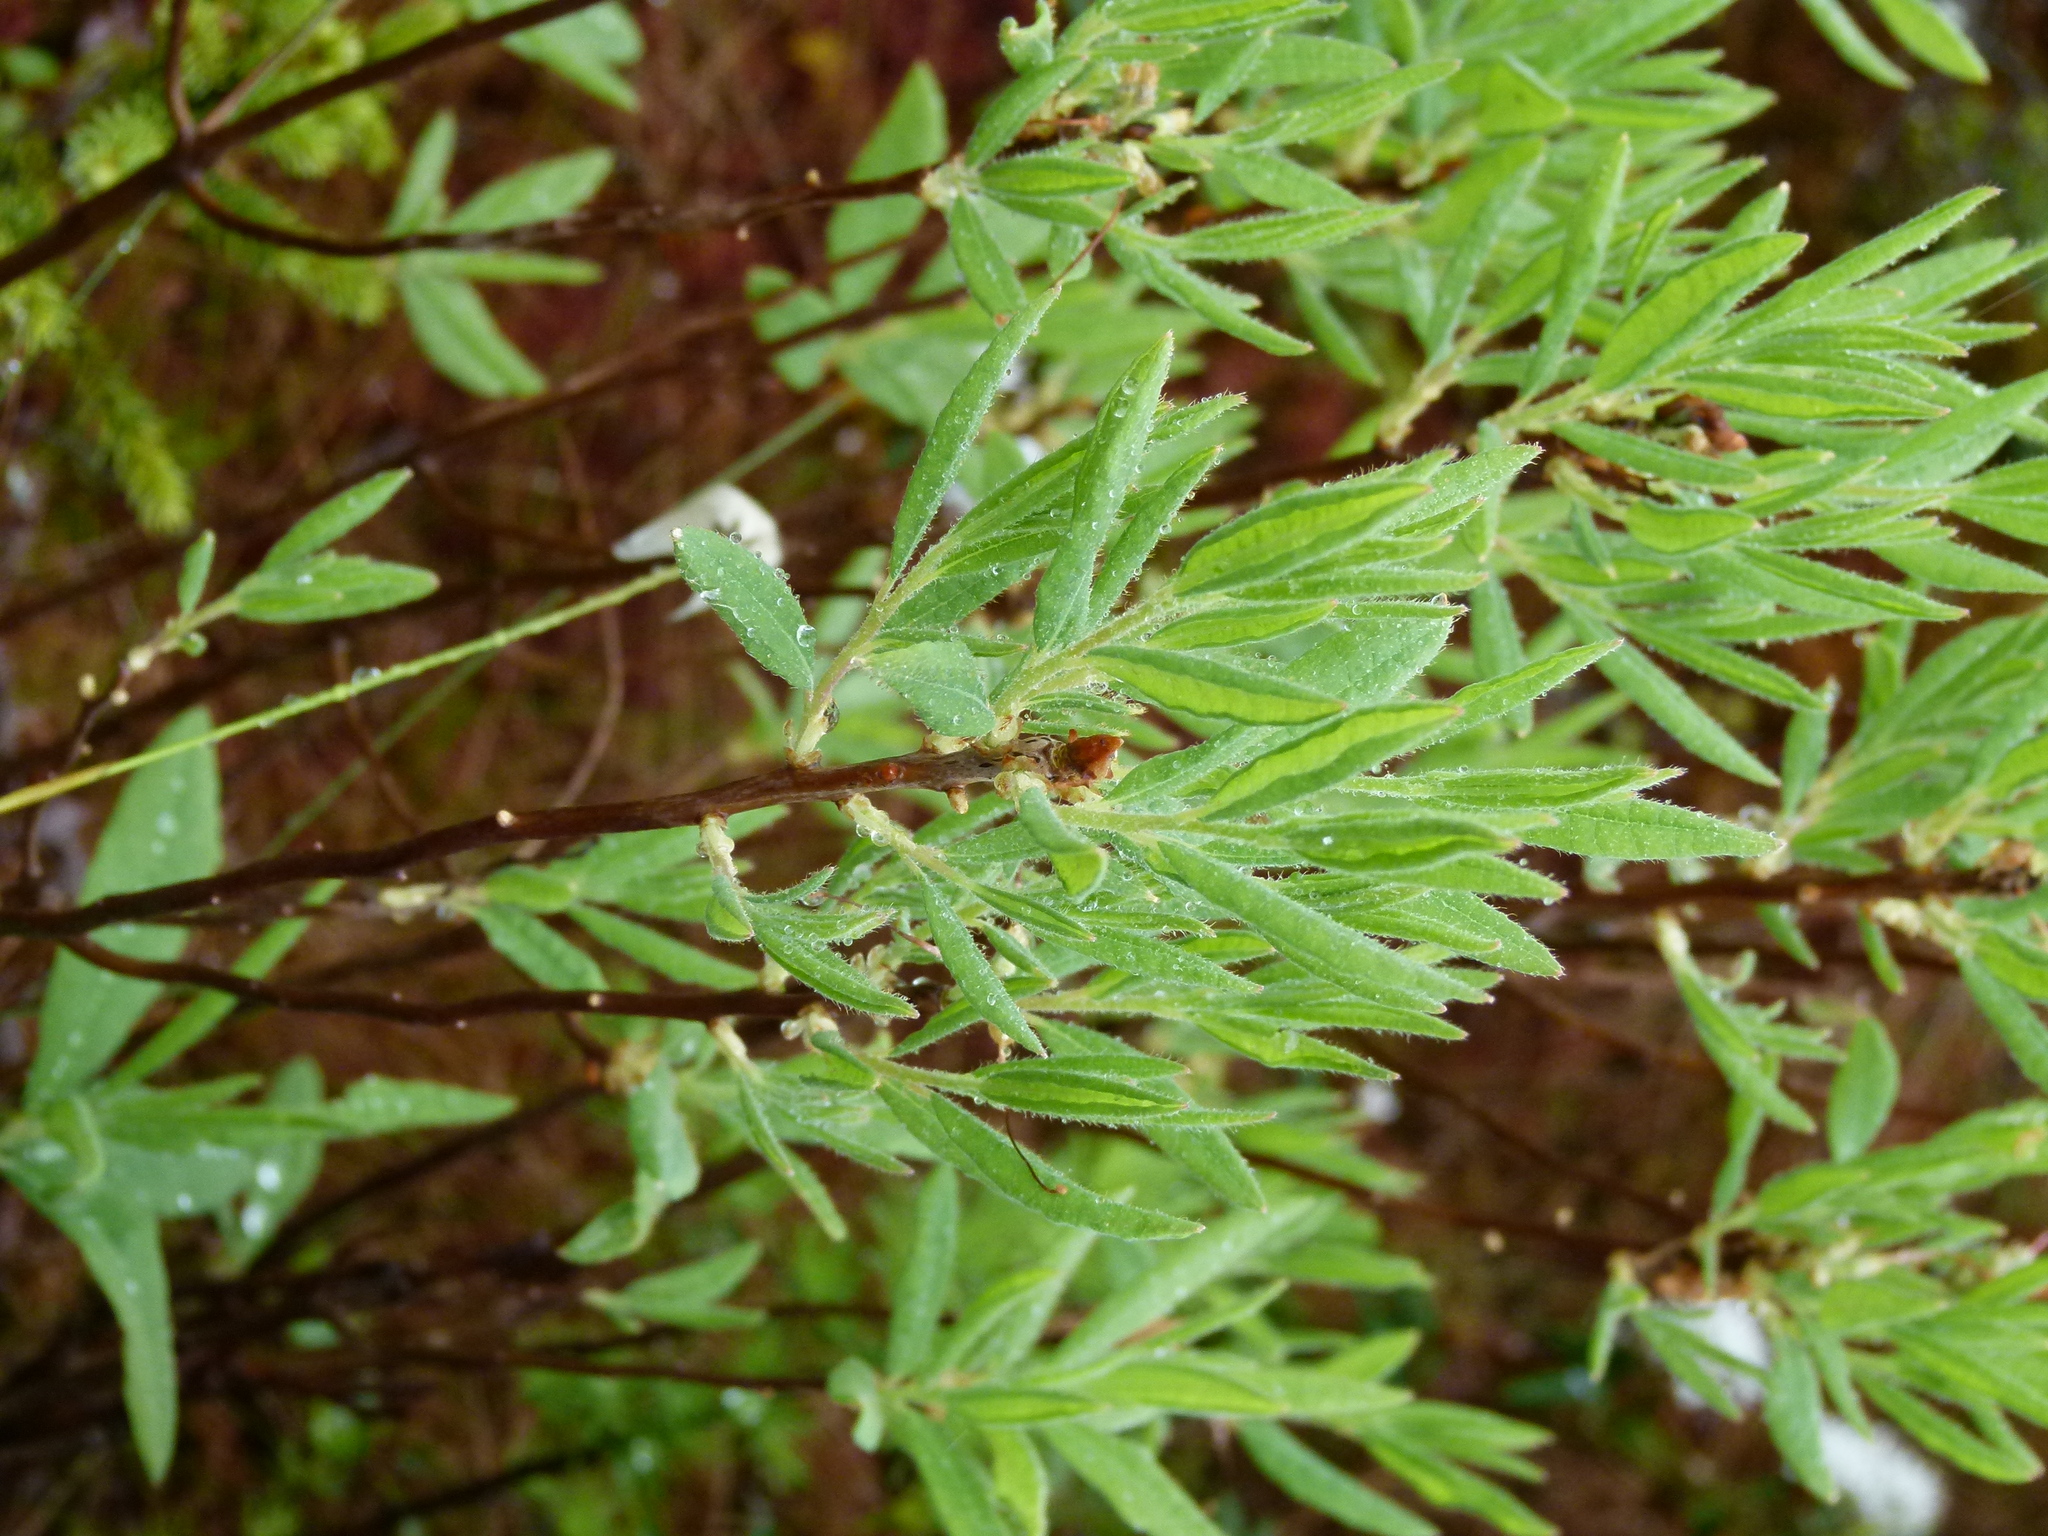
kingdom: Plantae
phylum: Tracheophyta
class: Magnoliopsida
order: Ericales
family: Ericaceae
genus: Rhododendron
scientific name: Rhododendron canadense
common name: Rhodora
